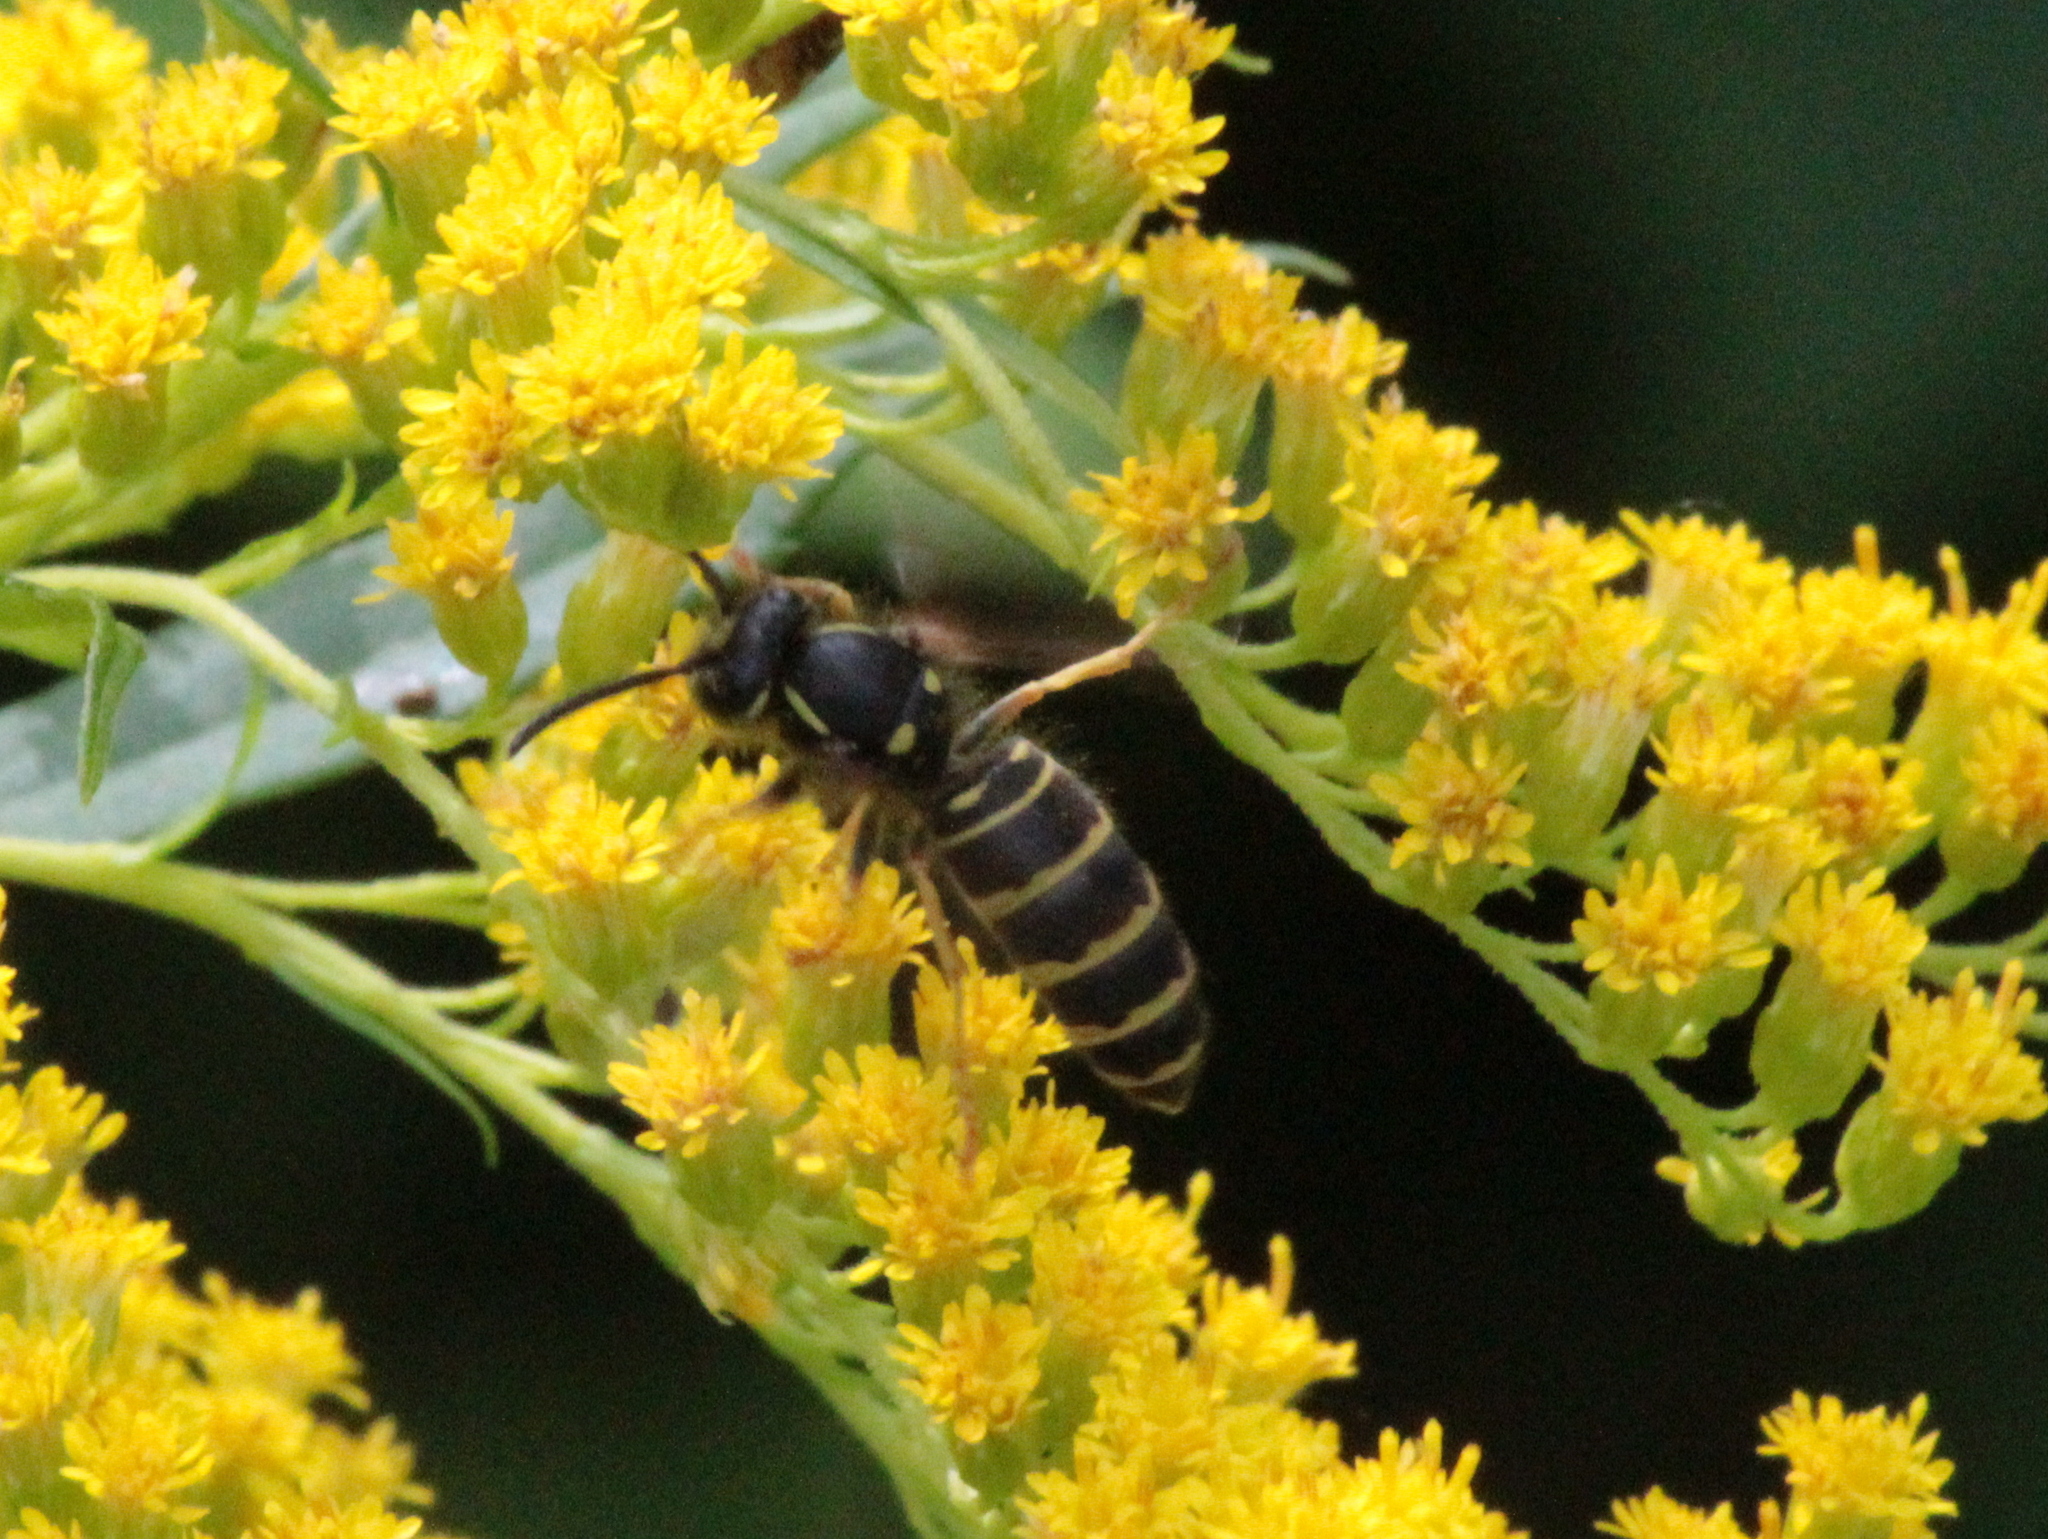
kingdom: Animalia
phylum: Arthropoda
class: Insecta
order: Hymenoptera
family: Vespidae
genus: Vespula
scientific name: Vespula acadica
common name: Forest yellowjacket
